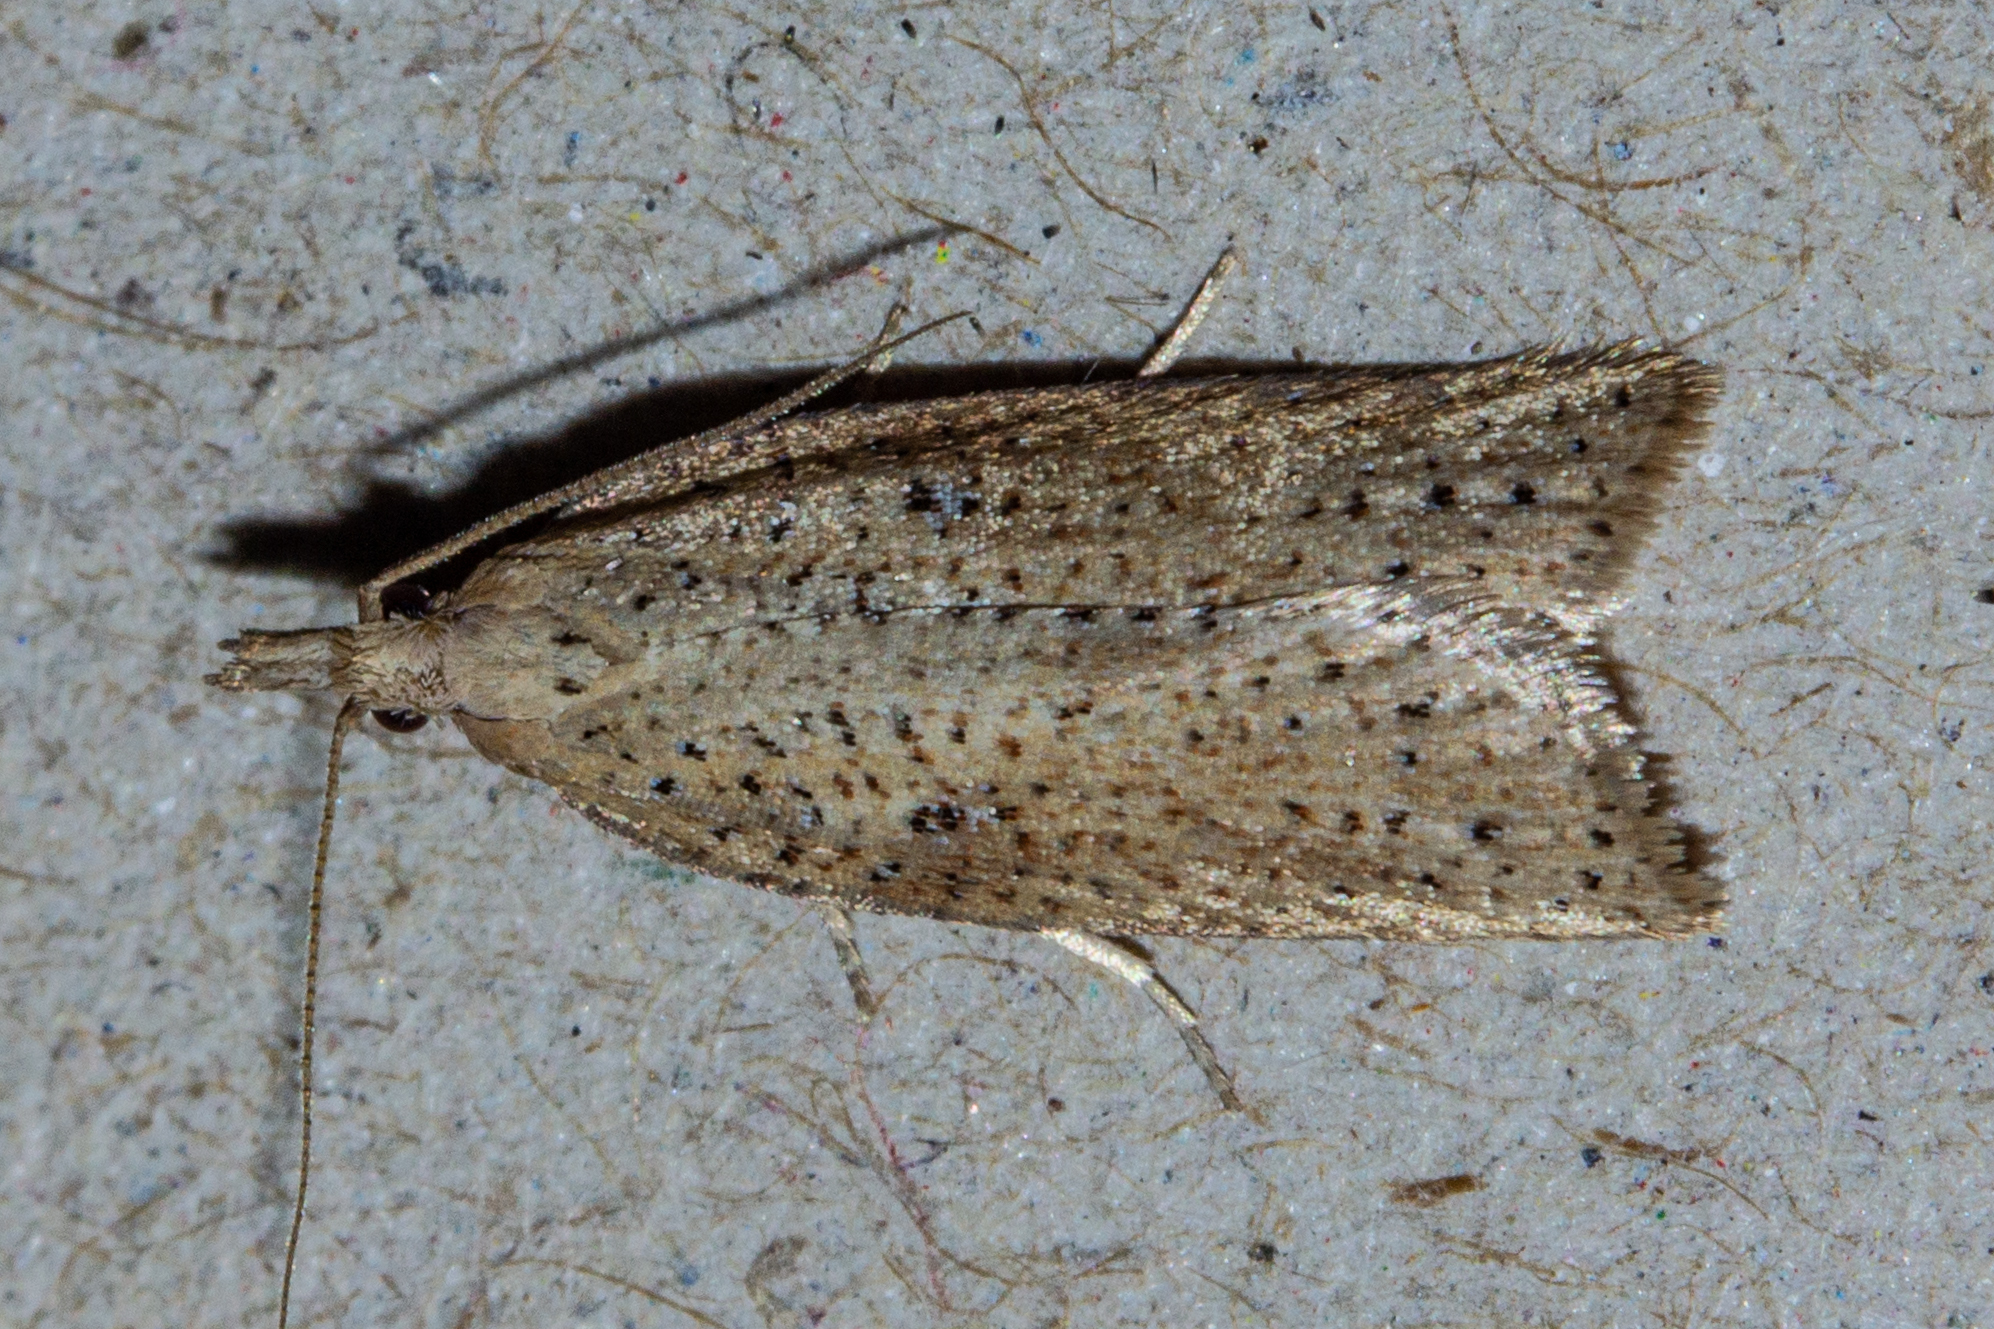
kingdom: Animalia
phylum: Arthropoda
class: Insecta
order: Lepidoptera
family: Tortricidae
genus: Apoctena
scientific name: Apoctena persecta
